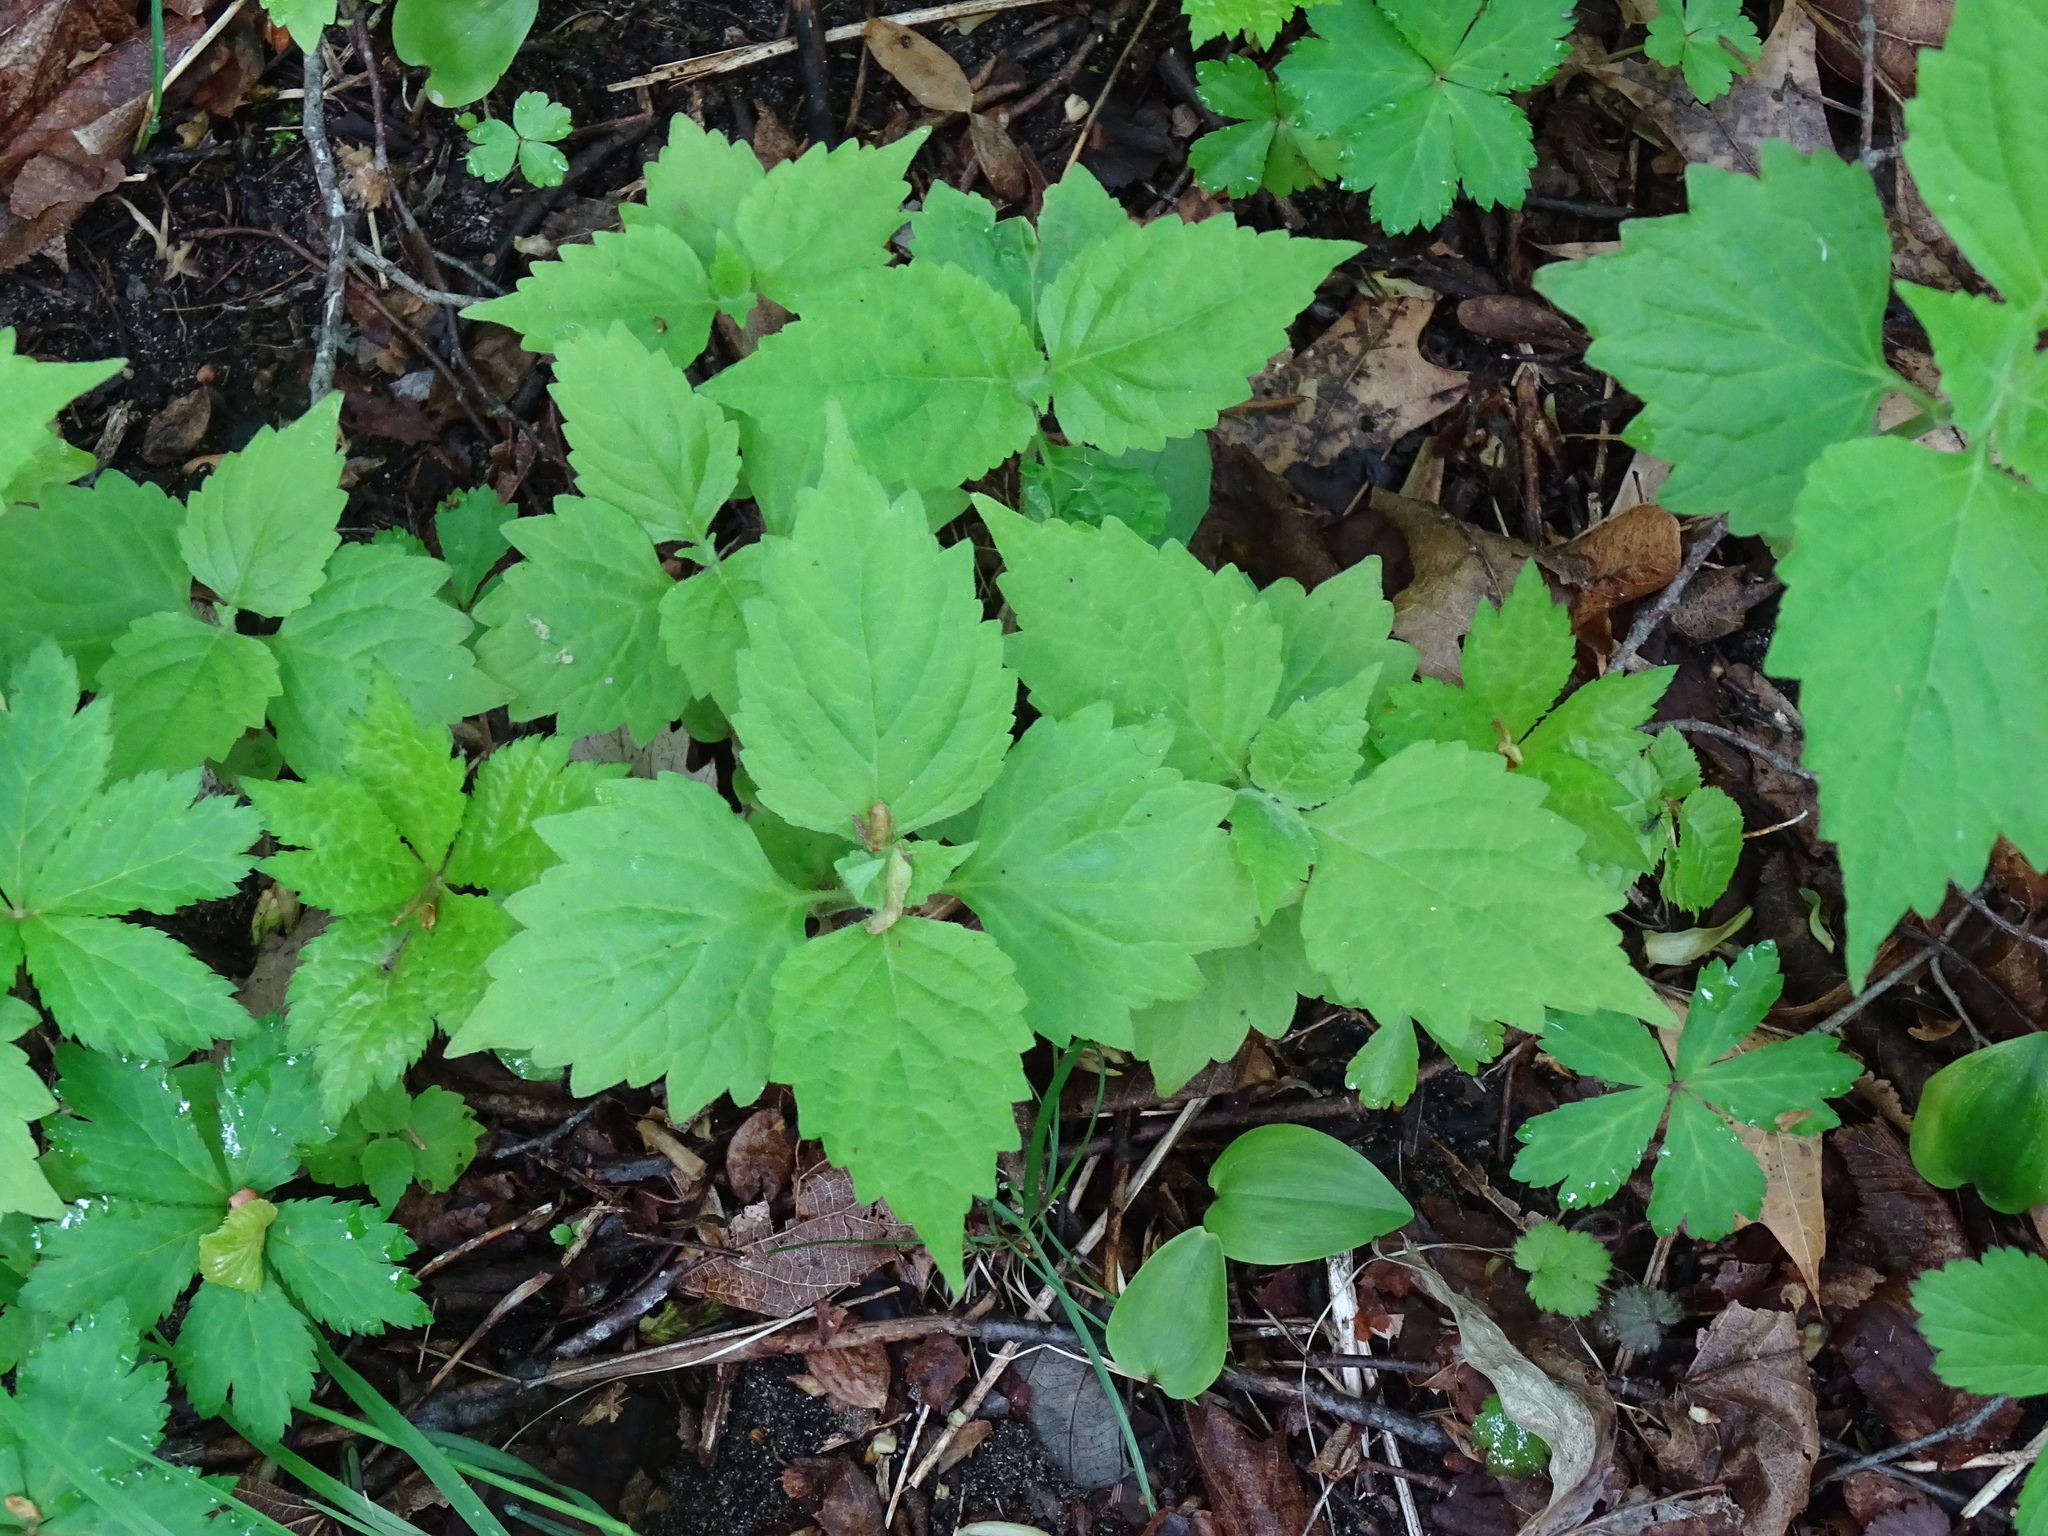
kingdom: Plantae
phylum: Tracheophyta
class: Magnoliopsida
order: Lamiales
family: Phrymaceae
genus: Phryma
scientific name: Phryma leptostachya
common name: American lopseed
